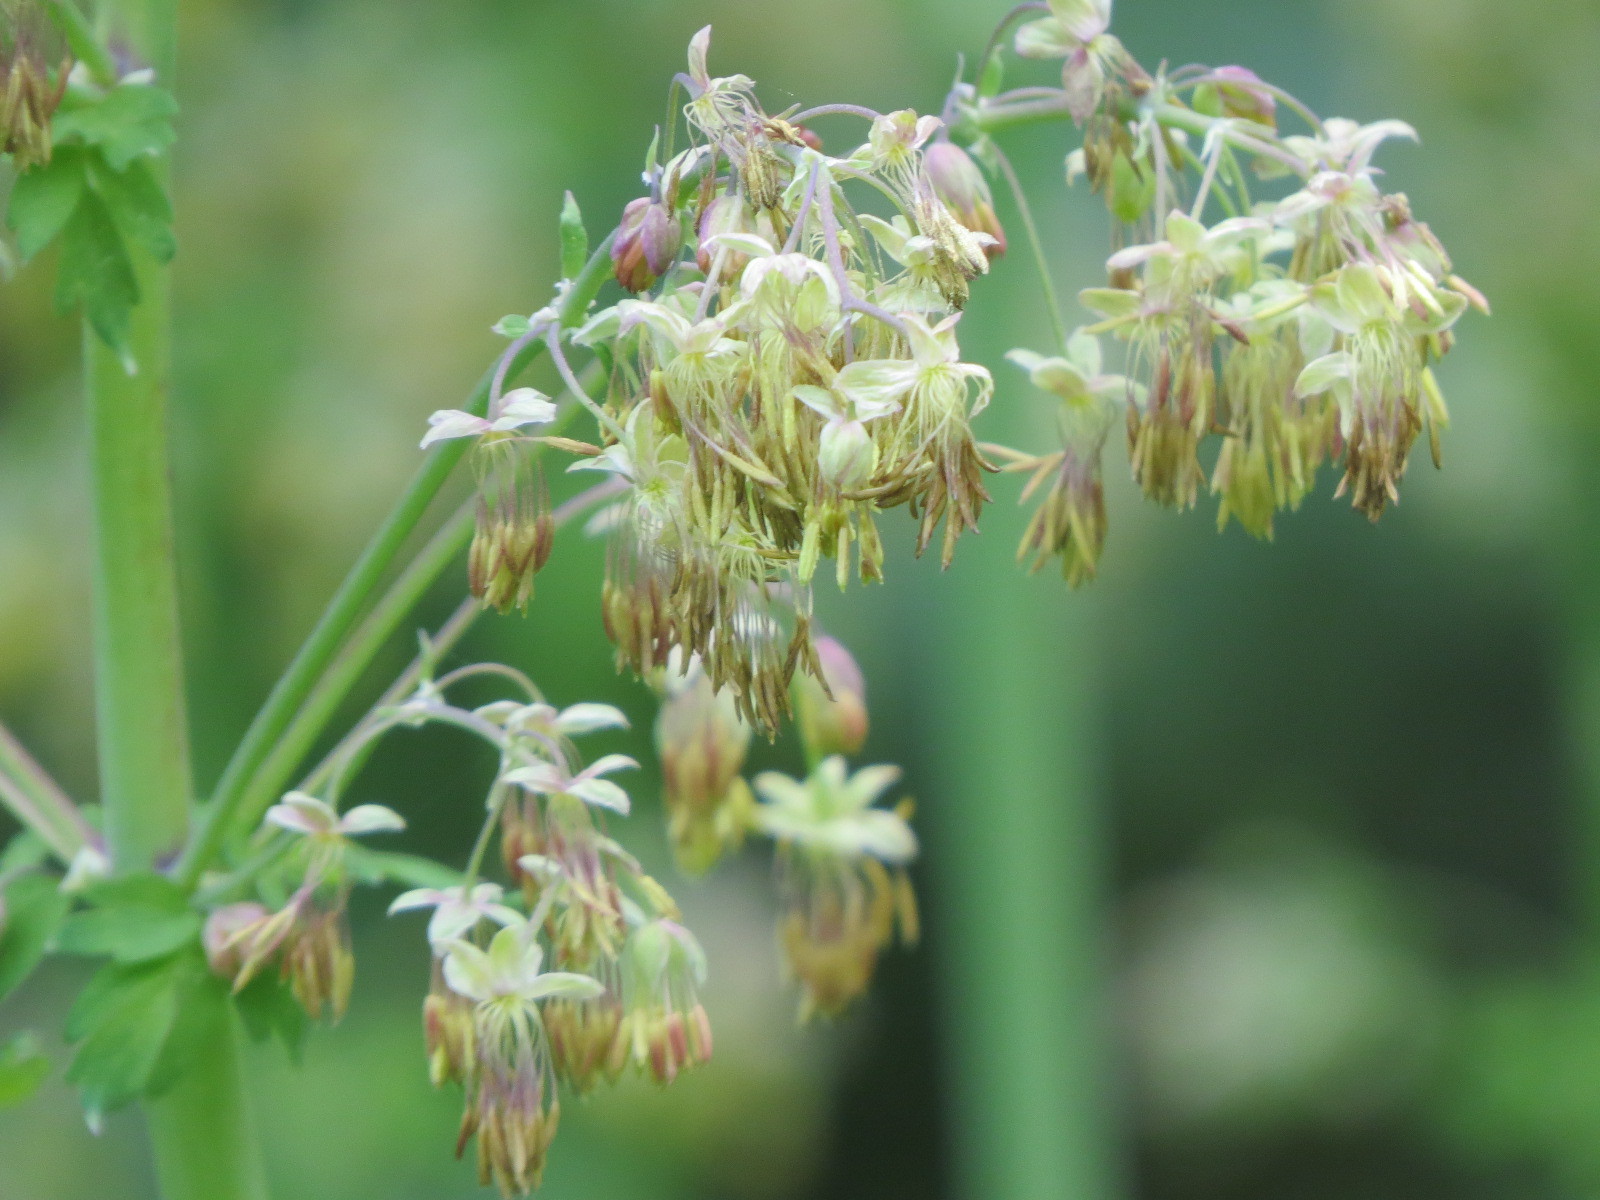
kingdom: Plantae
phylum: Tracheophyta
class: Magnoliopsida
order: Ranunculales
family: Ranunculaceae
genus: Thalictrum
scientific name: Thalictrum fendleri
